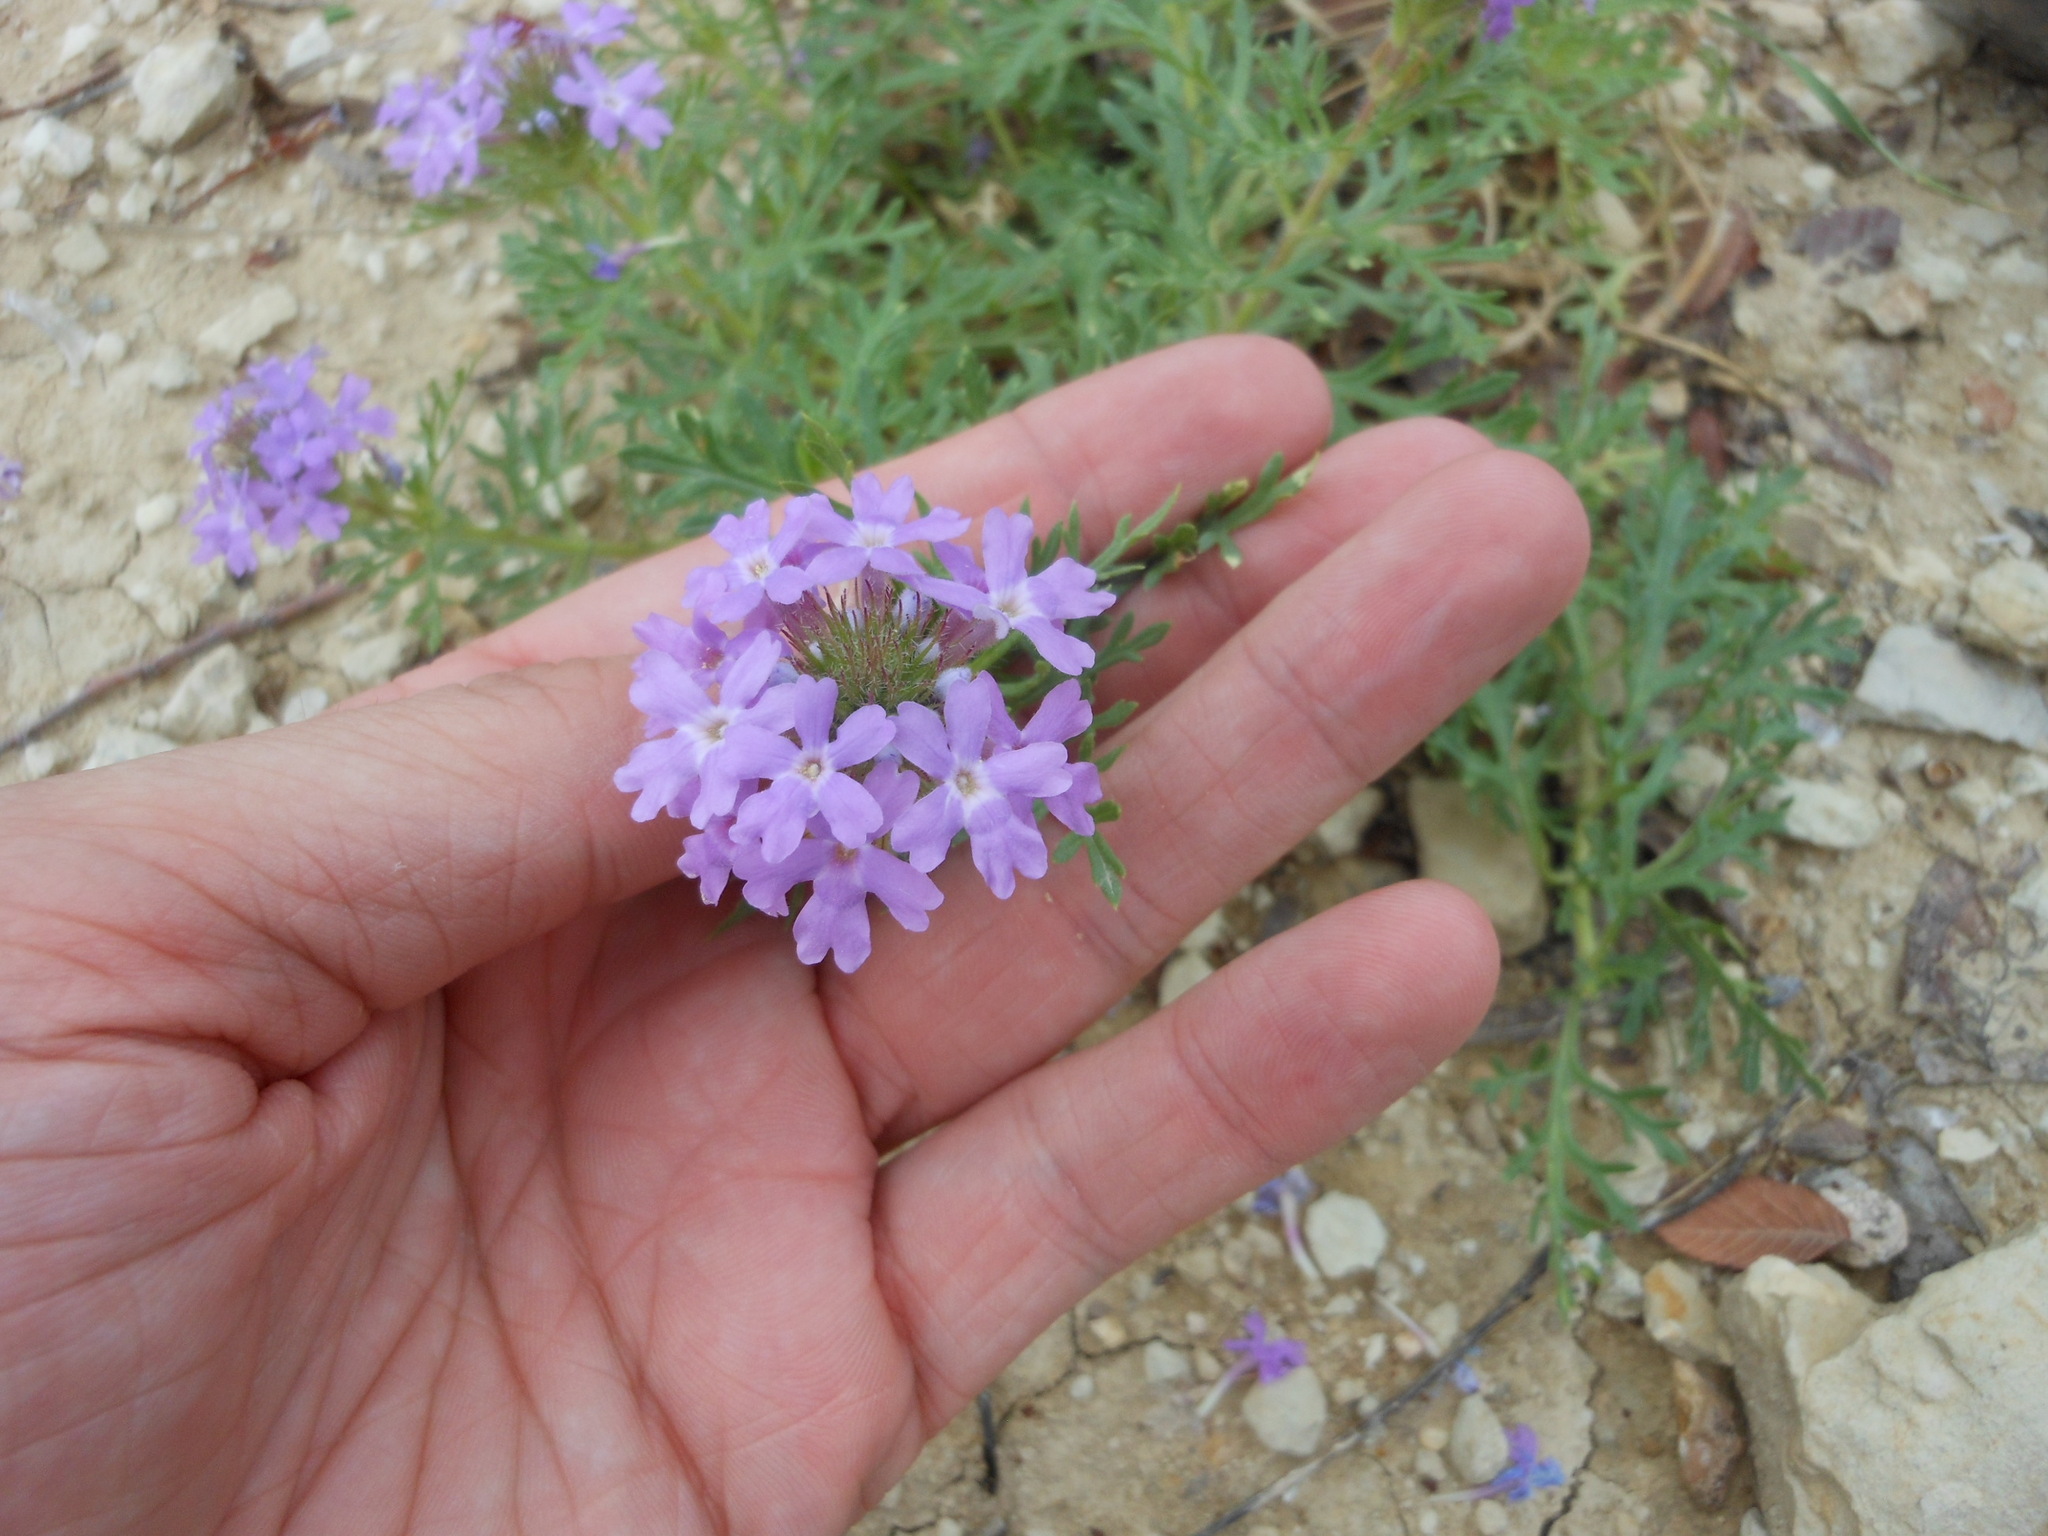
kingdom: Plantae
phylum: Tracheophyta
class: Magnoliopsida
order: Lamiales
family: Verbenaceae
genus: Verbena
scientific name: Verbena bipinnatifida
